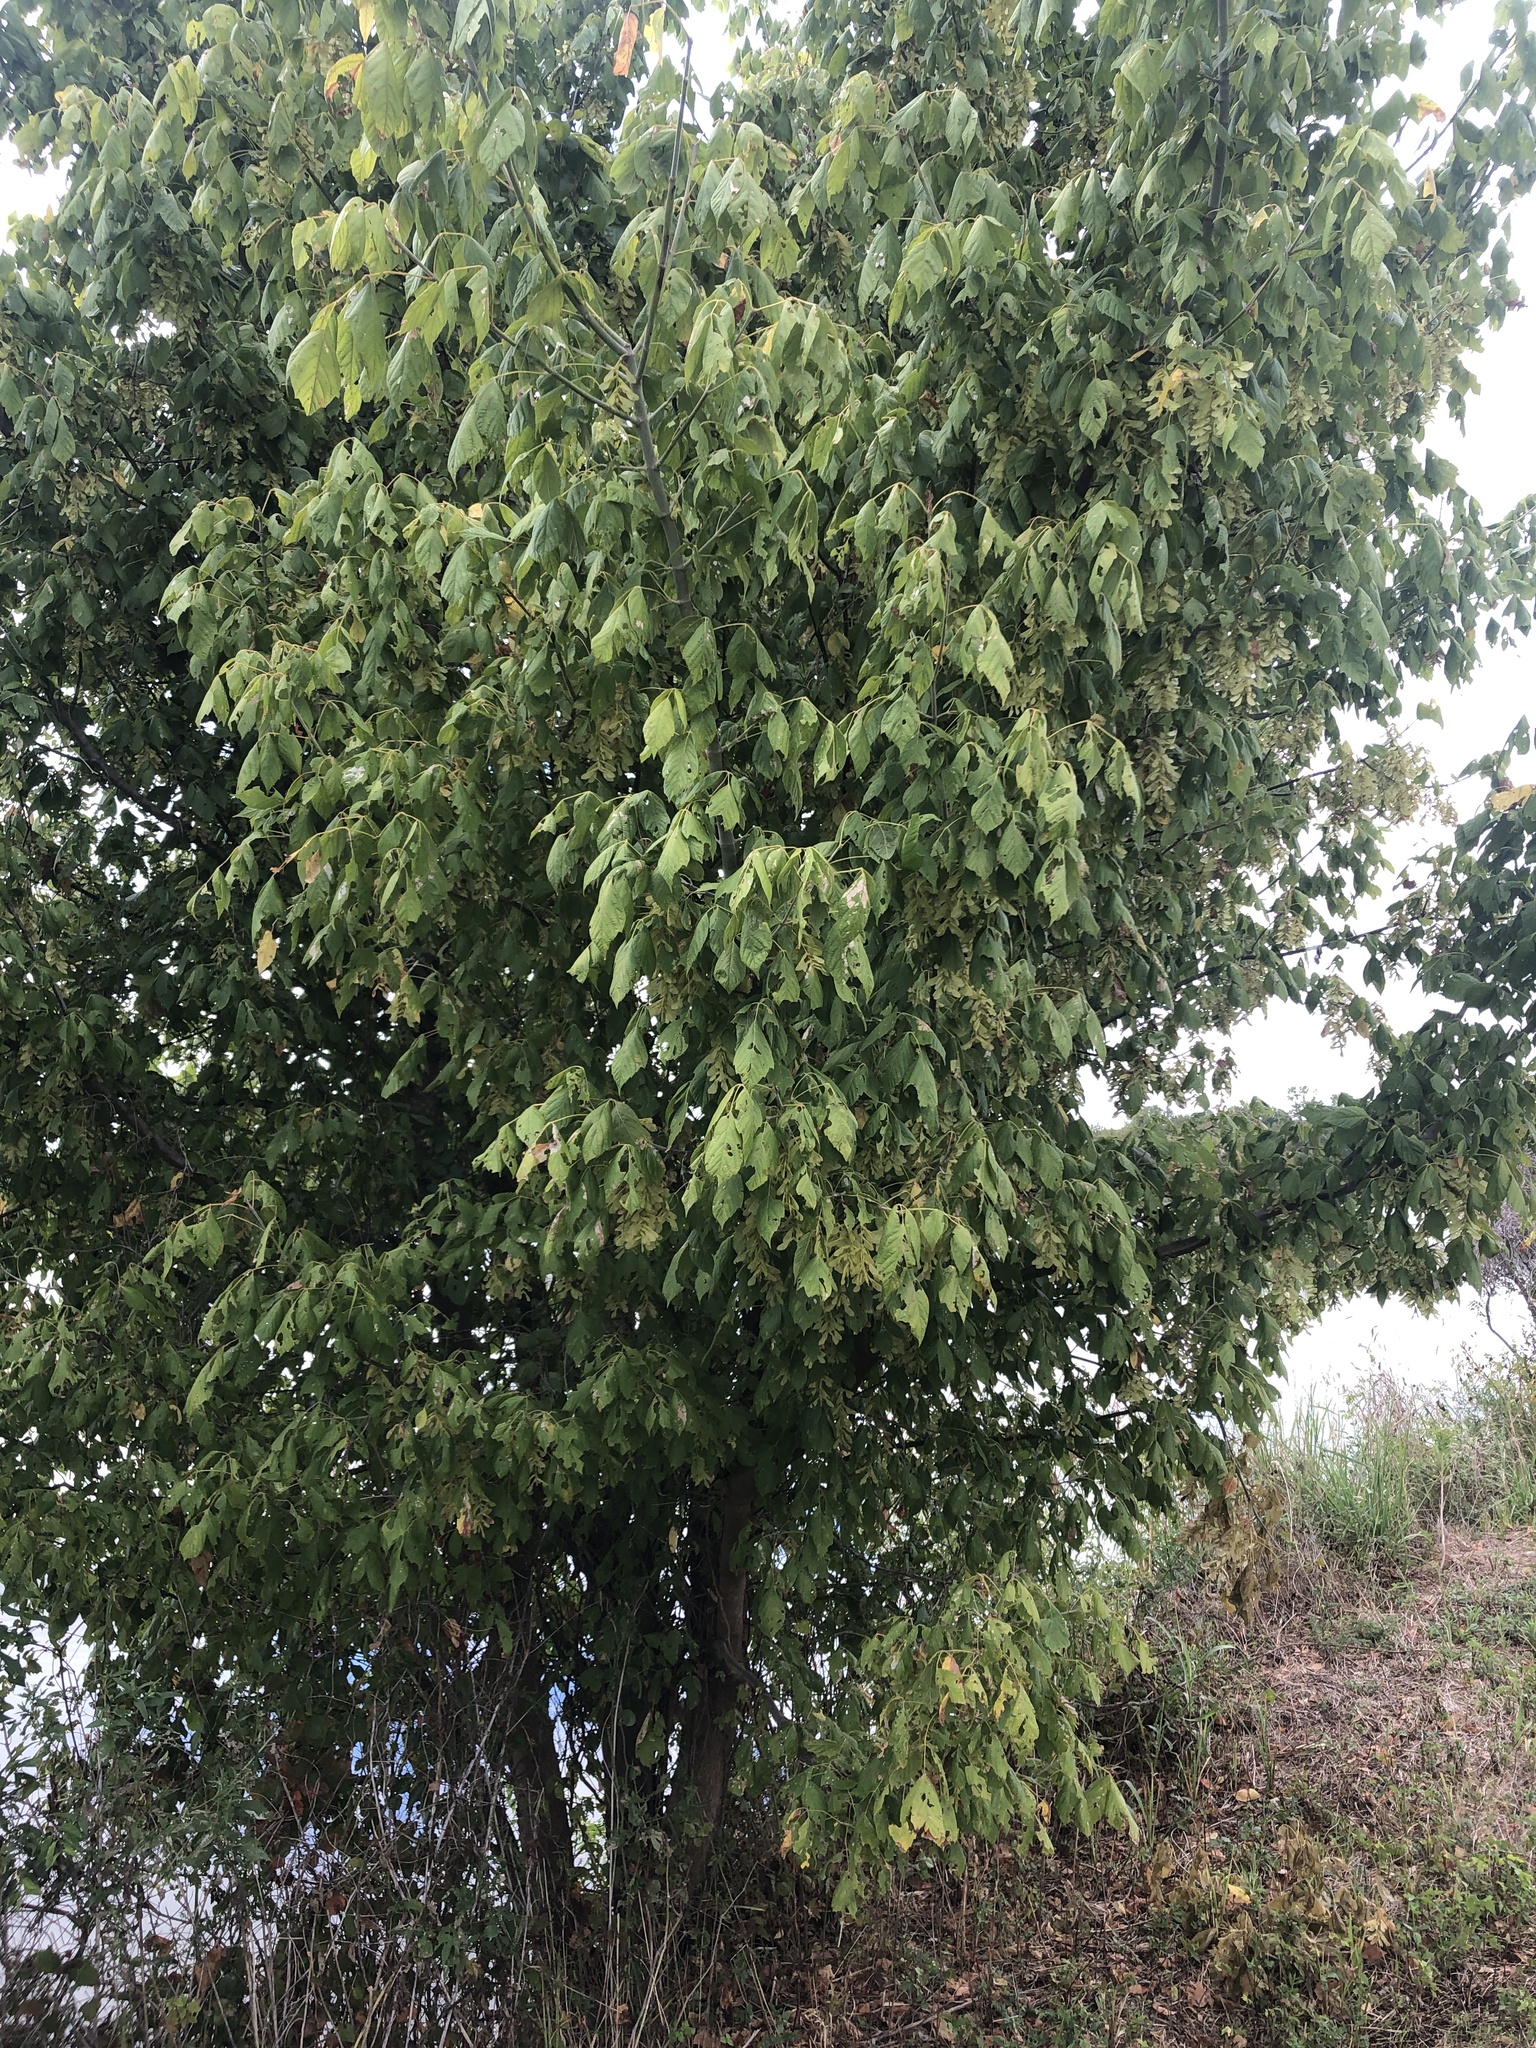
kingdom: Plantae
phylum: Tracheophyta
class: Magnoliopsida
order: Sapindales
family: Sapindaceae
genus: Acer
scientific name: Acer negundo
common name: Ashleaf maple
